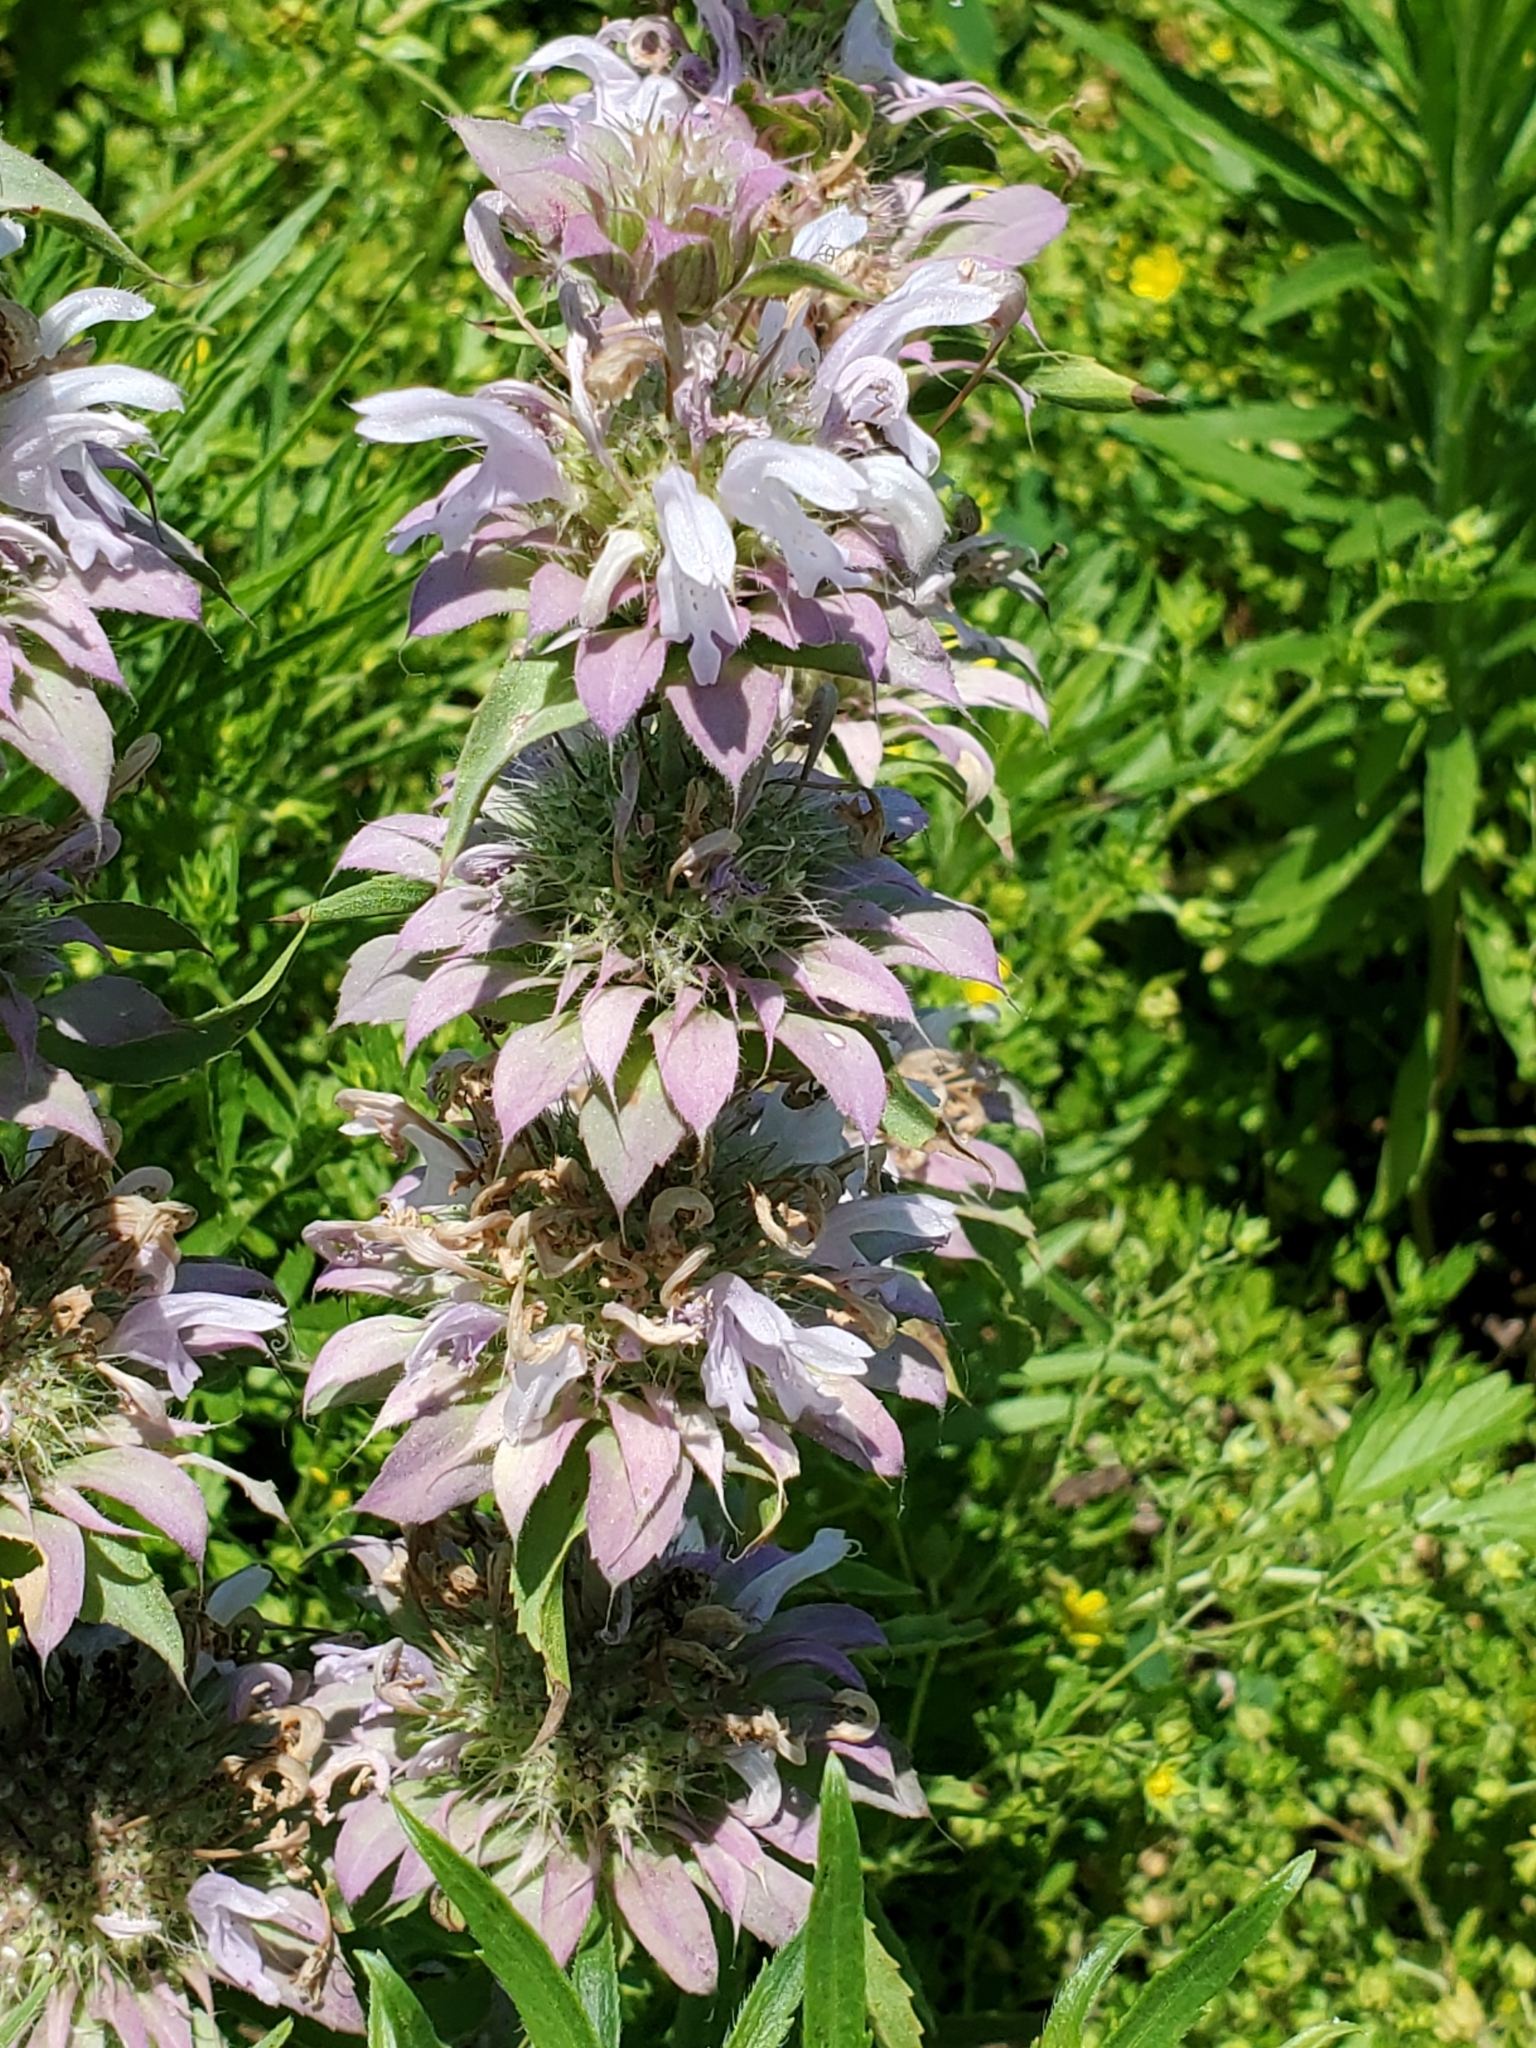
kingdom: Plantae
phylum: Tracheophyta
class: Magnoliopsida
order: Lamiales
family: Lamiaceae
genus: Monarda
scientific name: Monarda citriodora
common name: Lemon beebalm
